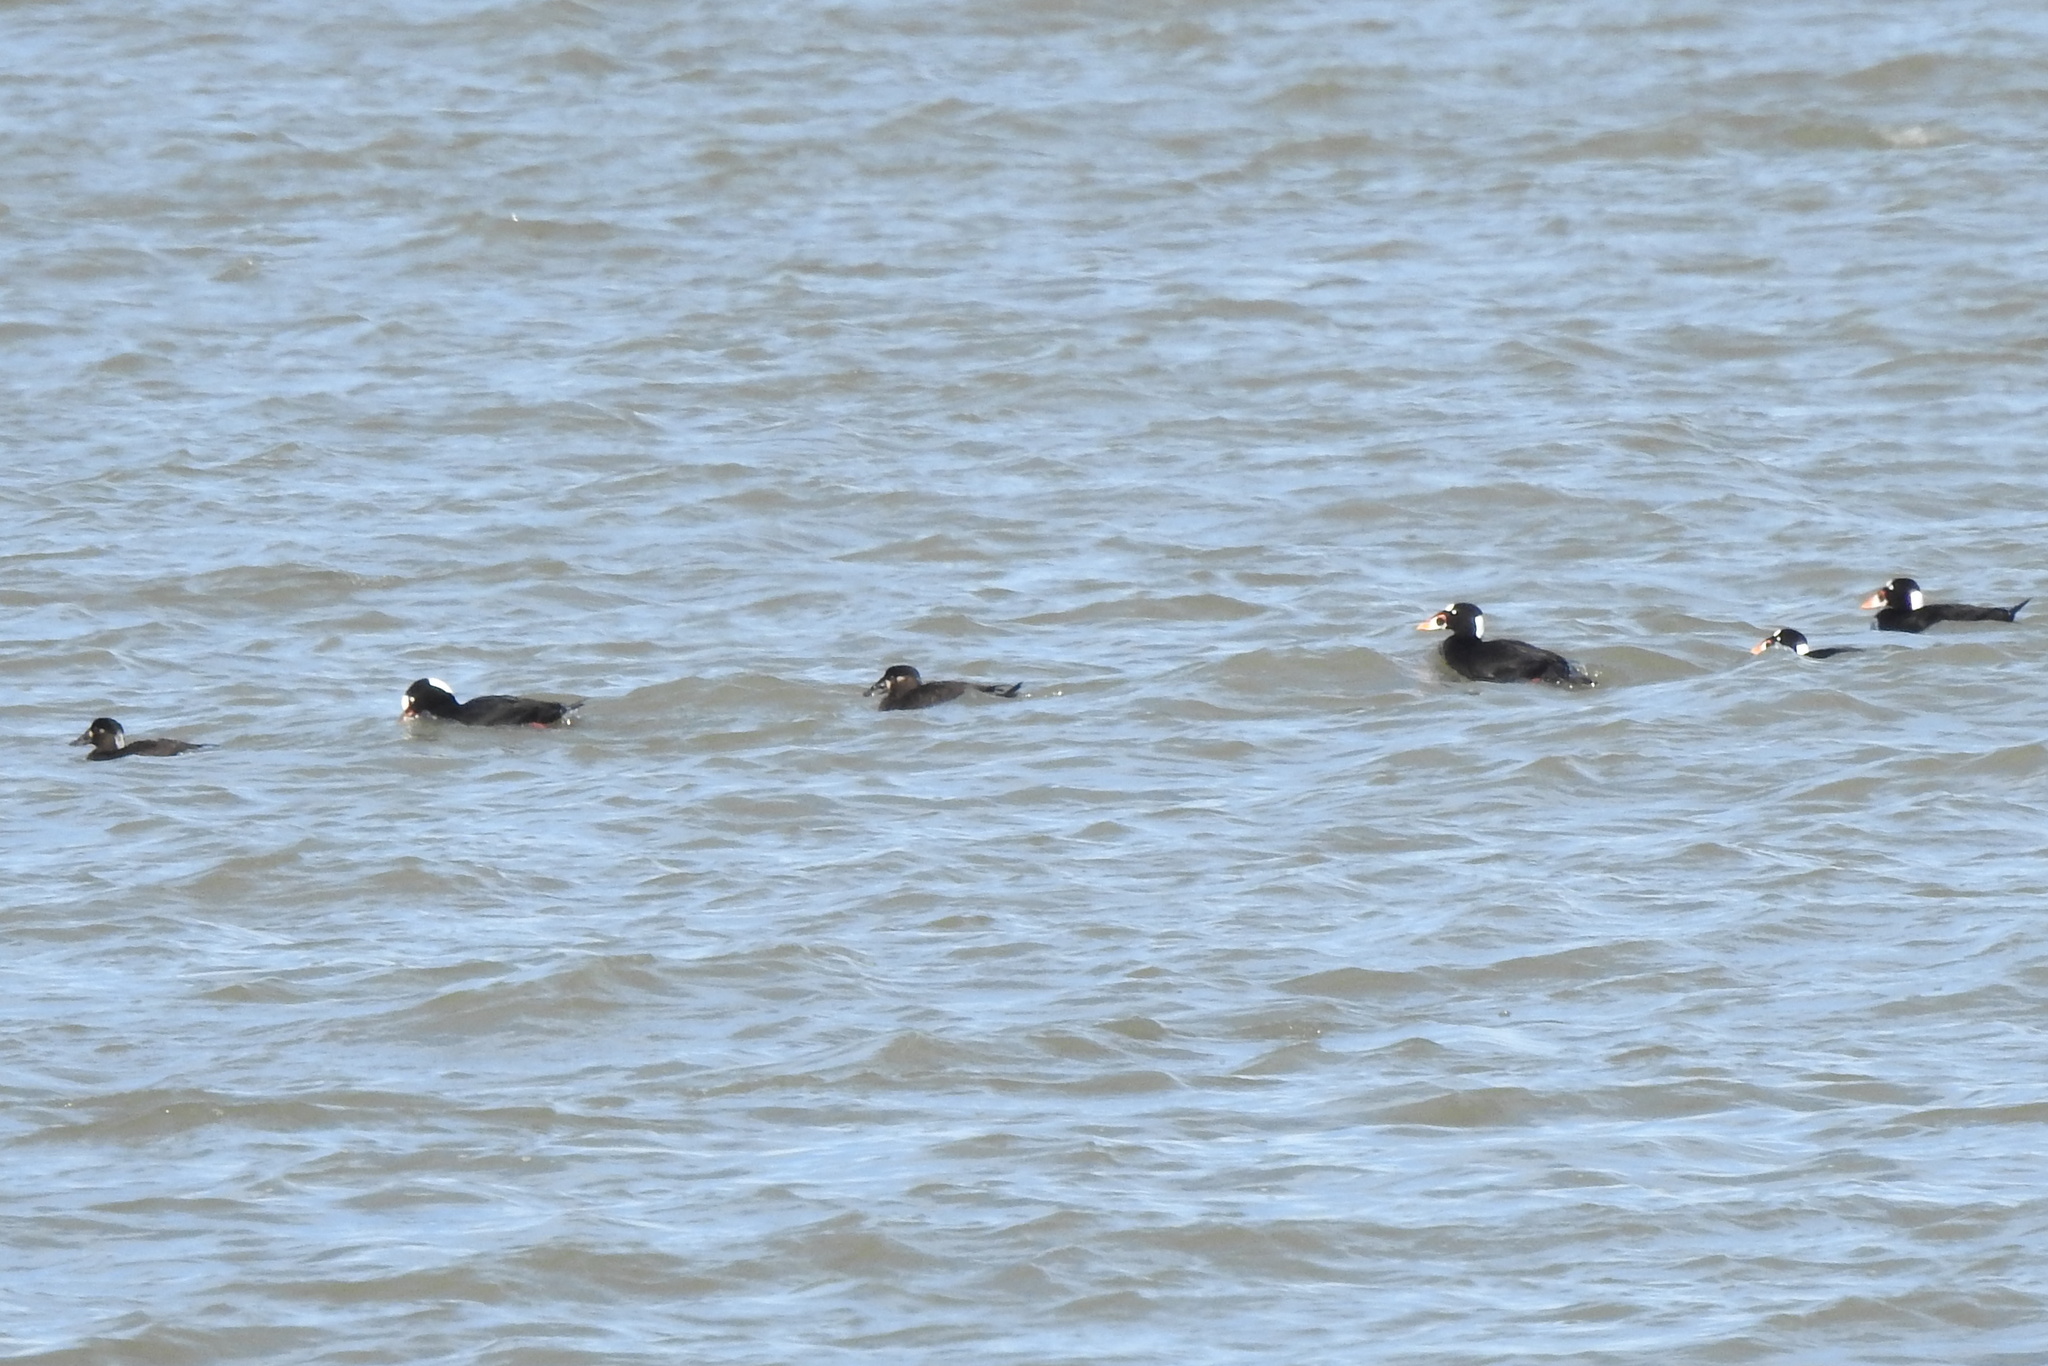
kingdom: Animalia
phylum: Chordata
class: Aves
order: Anseriformes
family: Anatidae
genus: Melanitta
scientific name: Melanitta perspicillata
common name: Surf scoter
